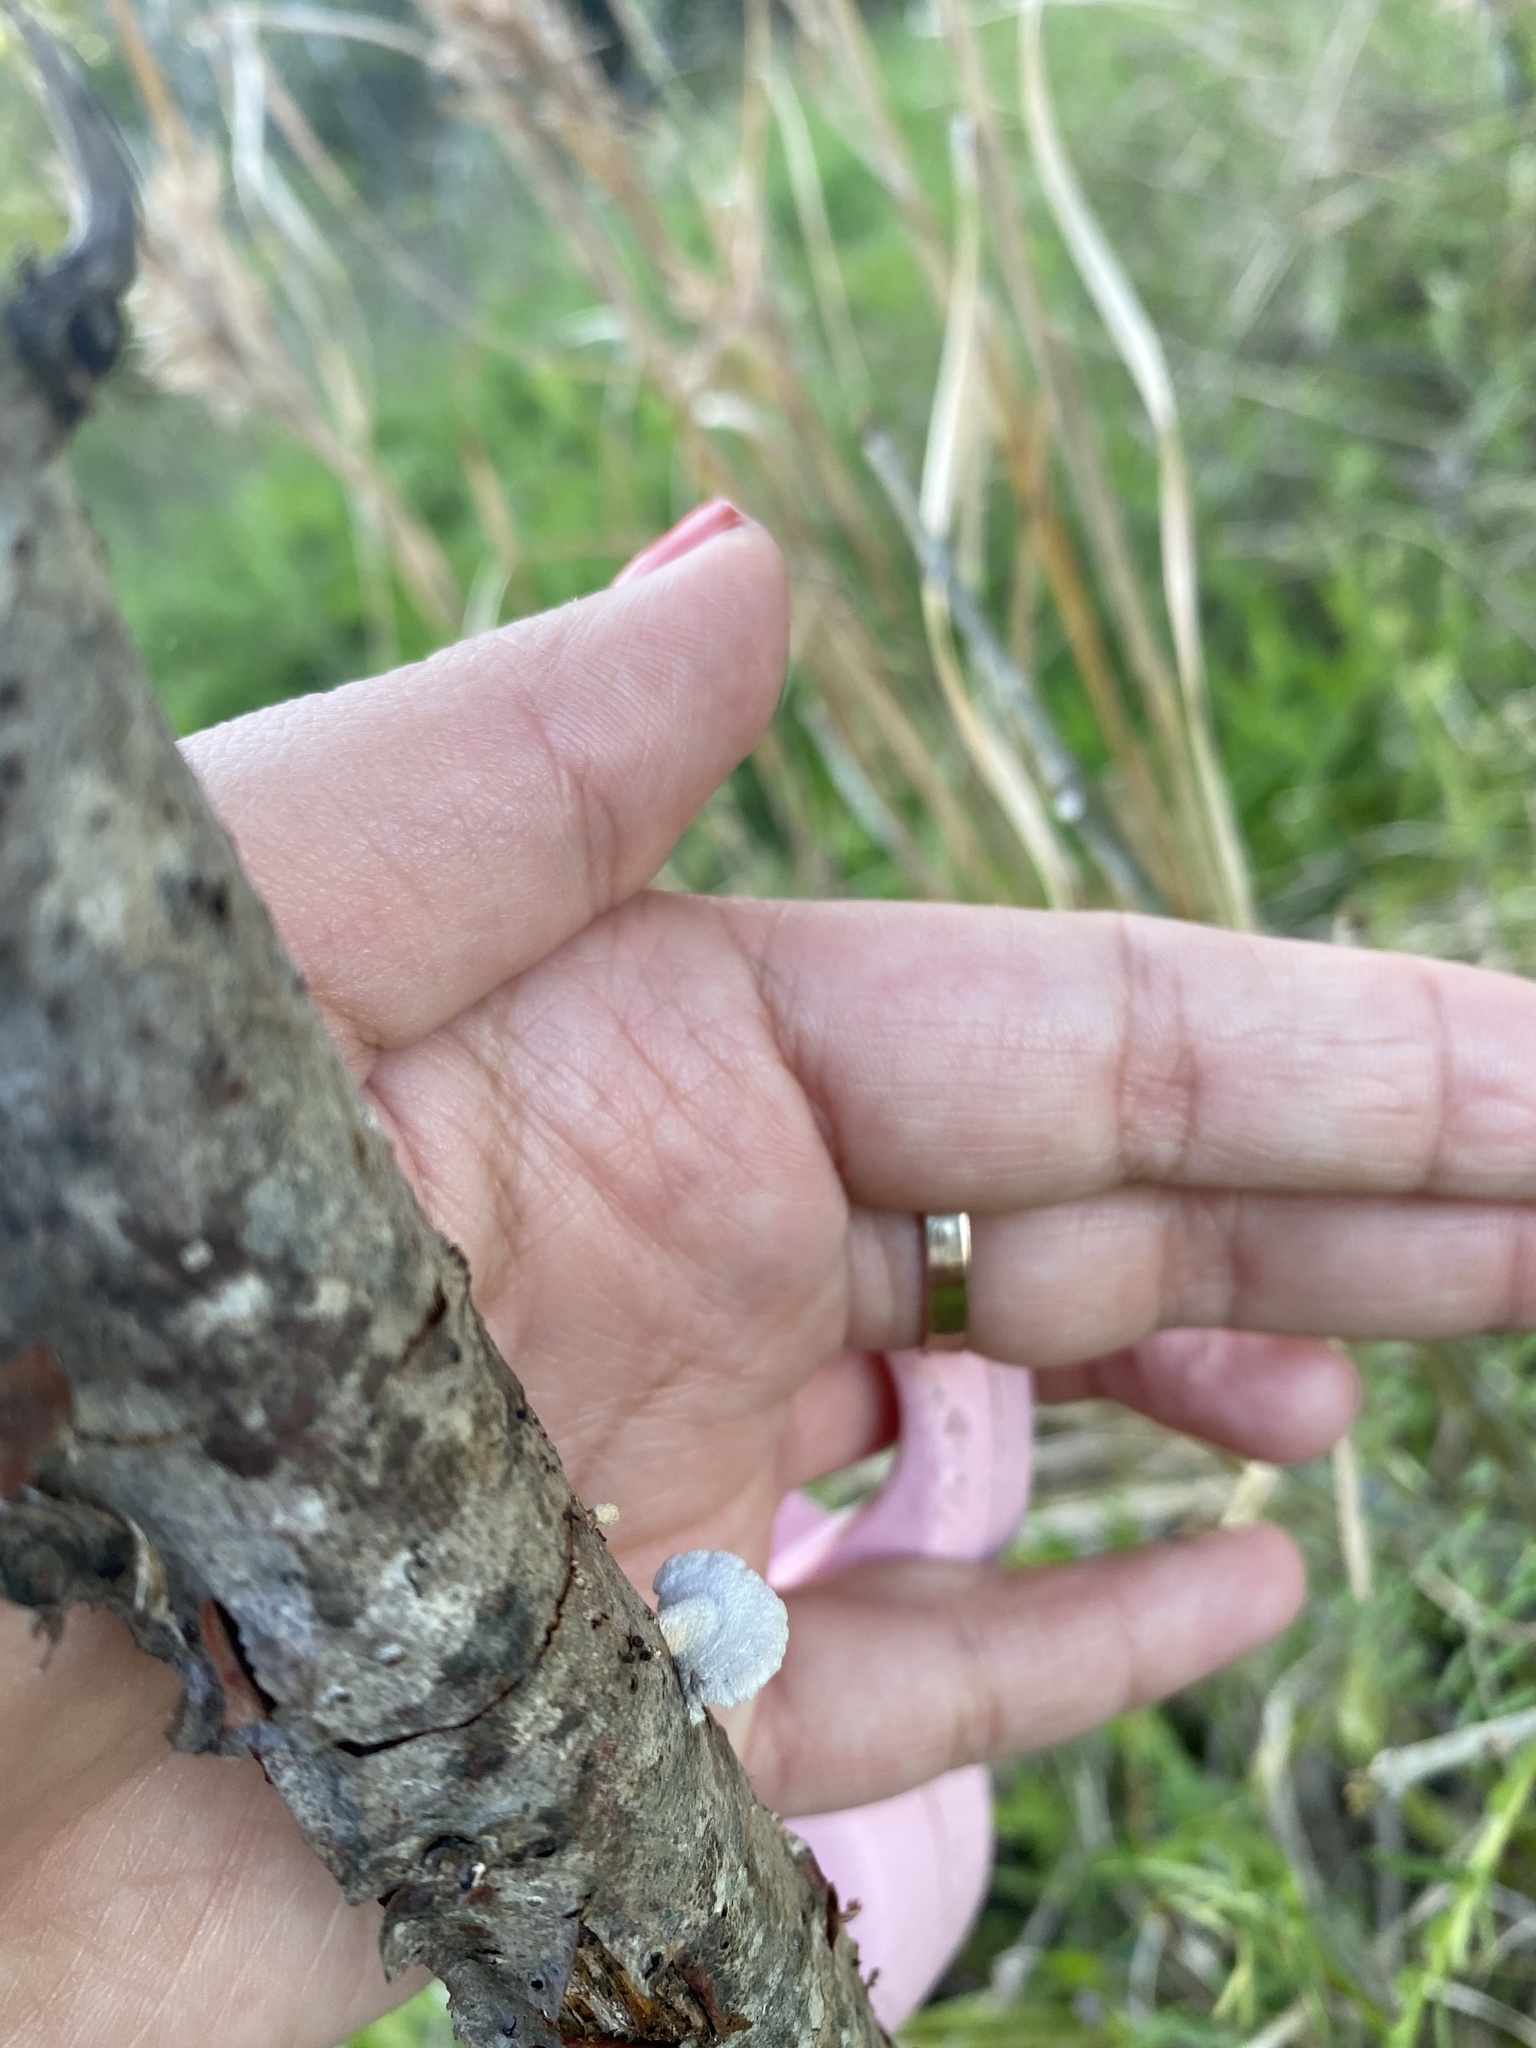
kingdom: Fungi
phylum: Basidiomycota
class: Agaricomycetes
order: Agaricales
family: Schizophyllaceae
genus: Schizophyllum
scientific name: Schizophyllum commune
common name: Common porecrust
